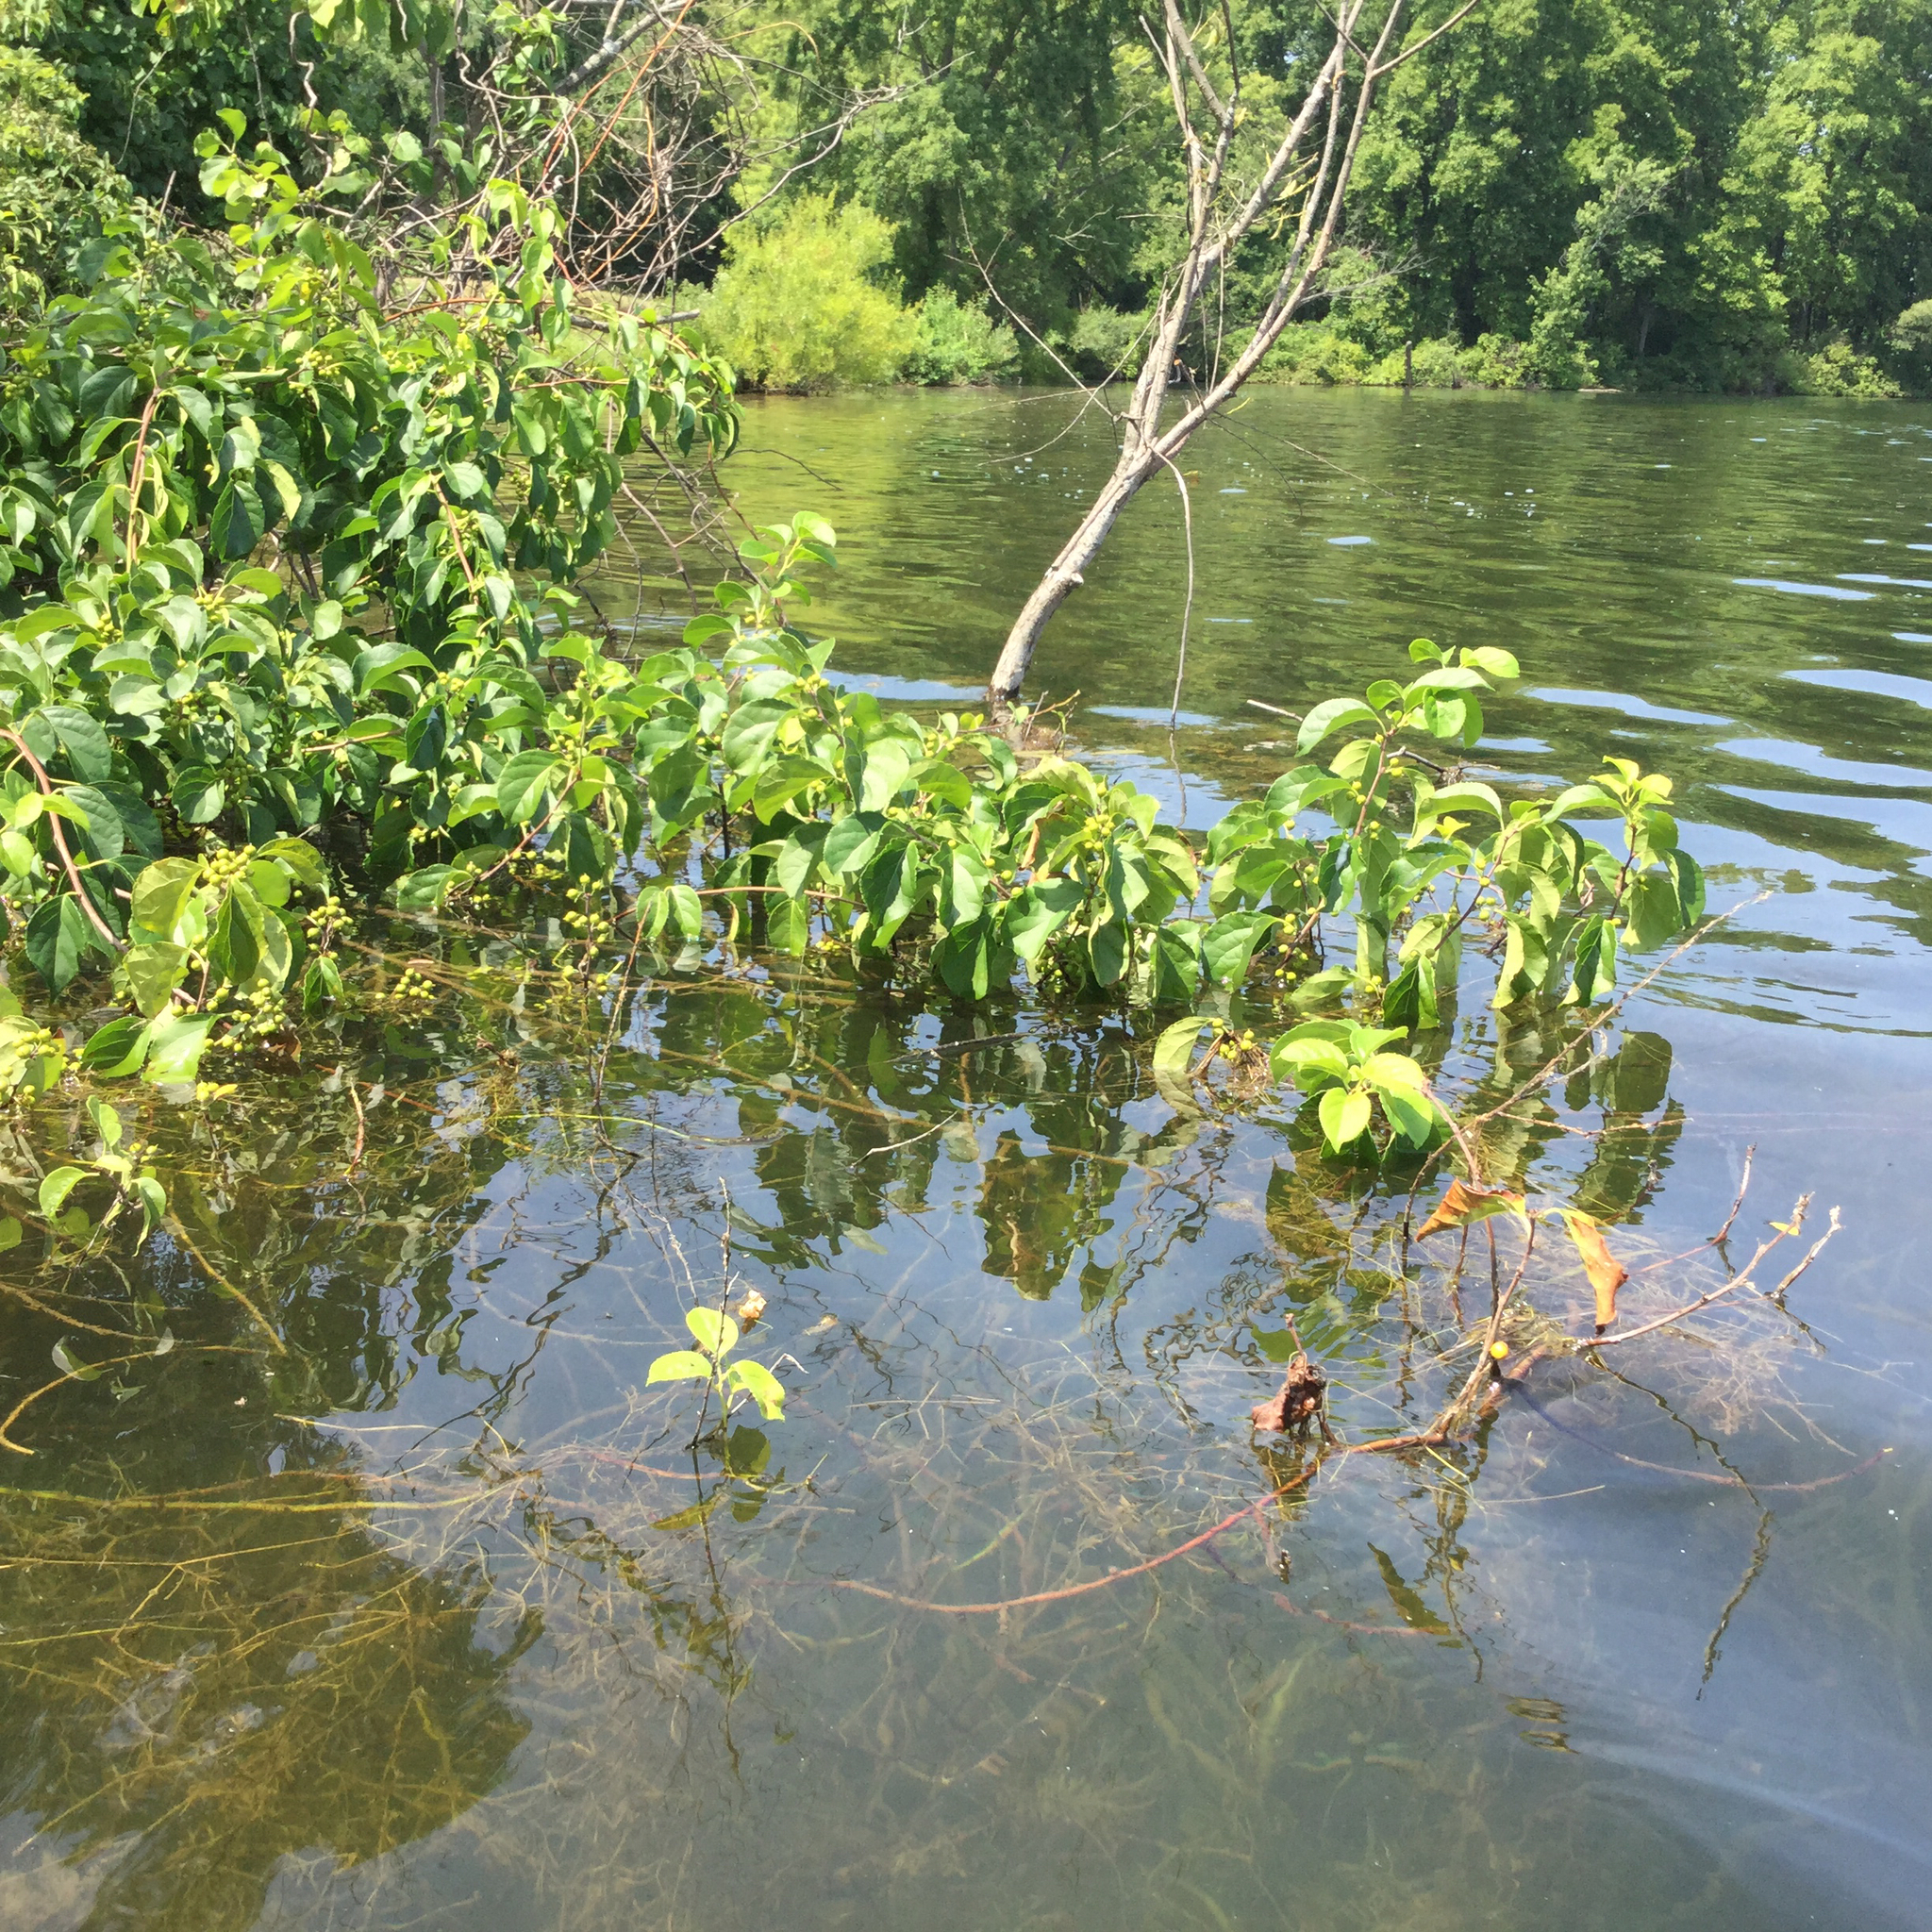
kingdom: Plantae
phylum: Tracheophyta
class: Magnoliopsida
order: Celastrales
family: Celastraceae
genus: Celastrus
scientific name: Celastrus orbiculatus
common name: Oriental bittersweet
